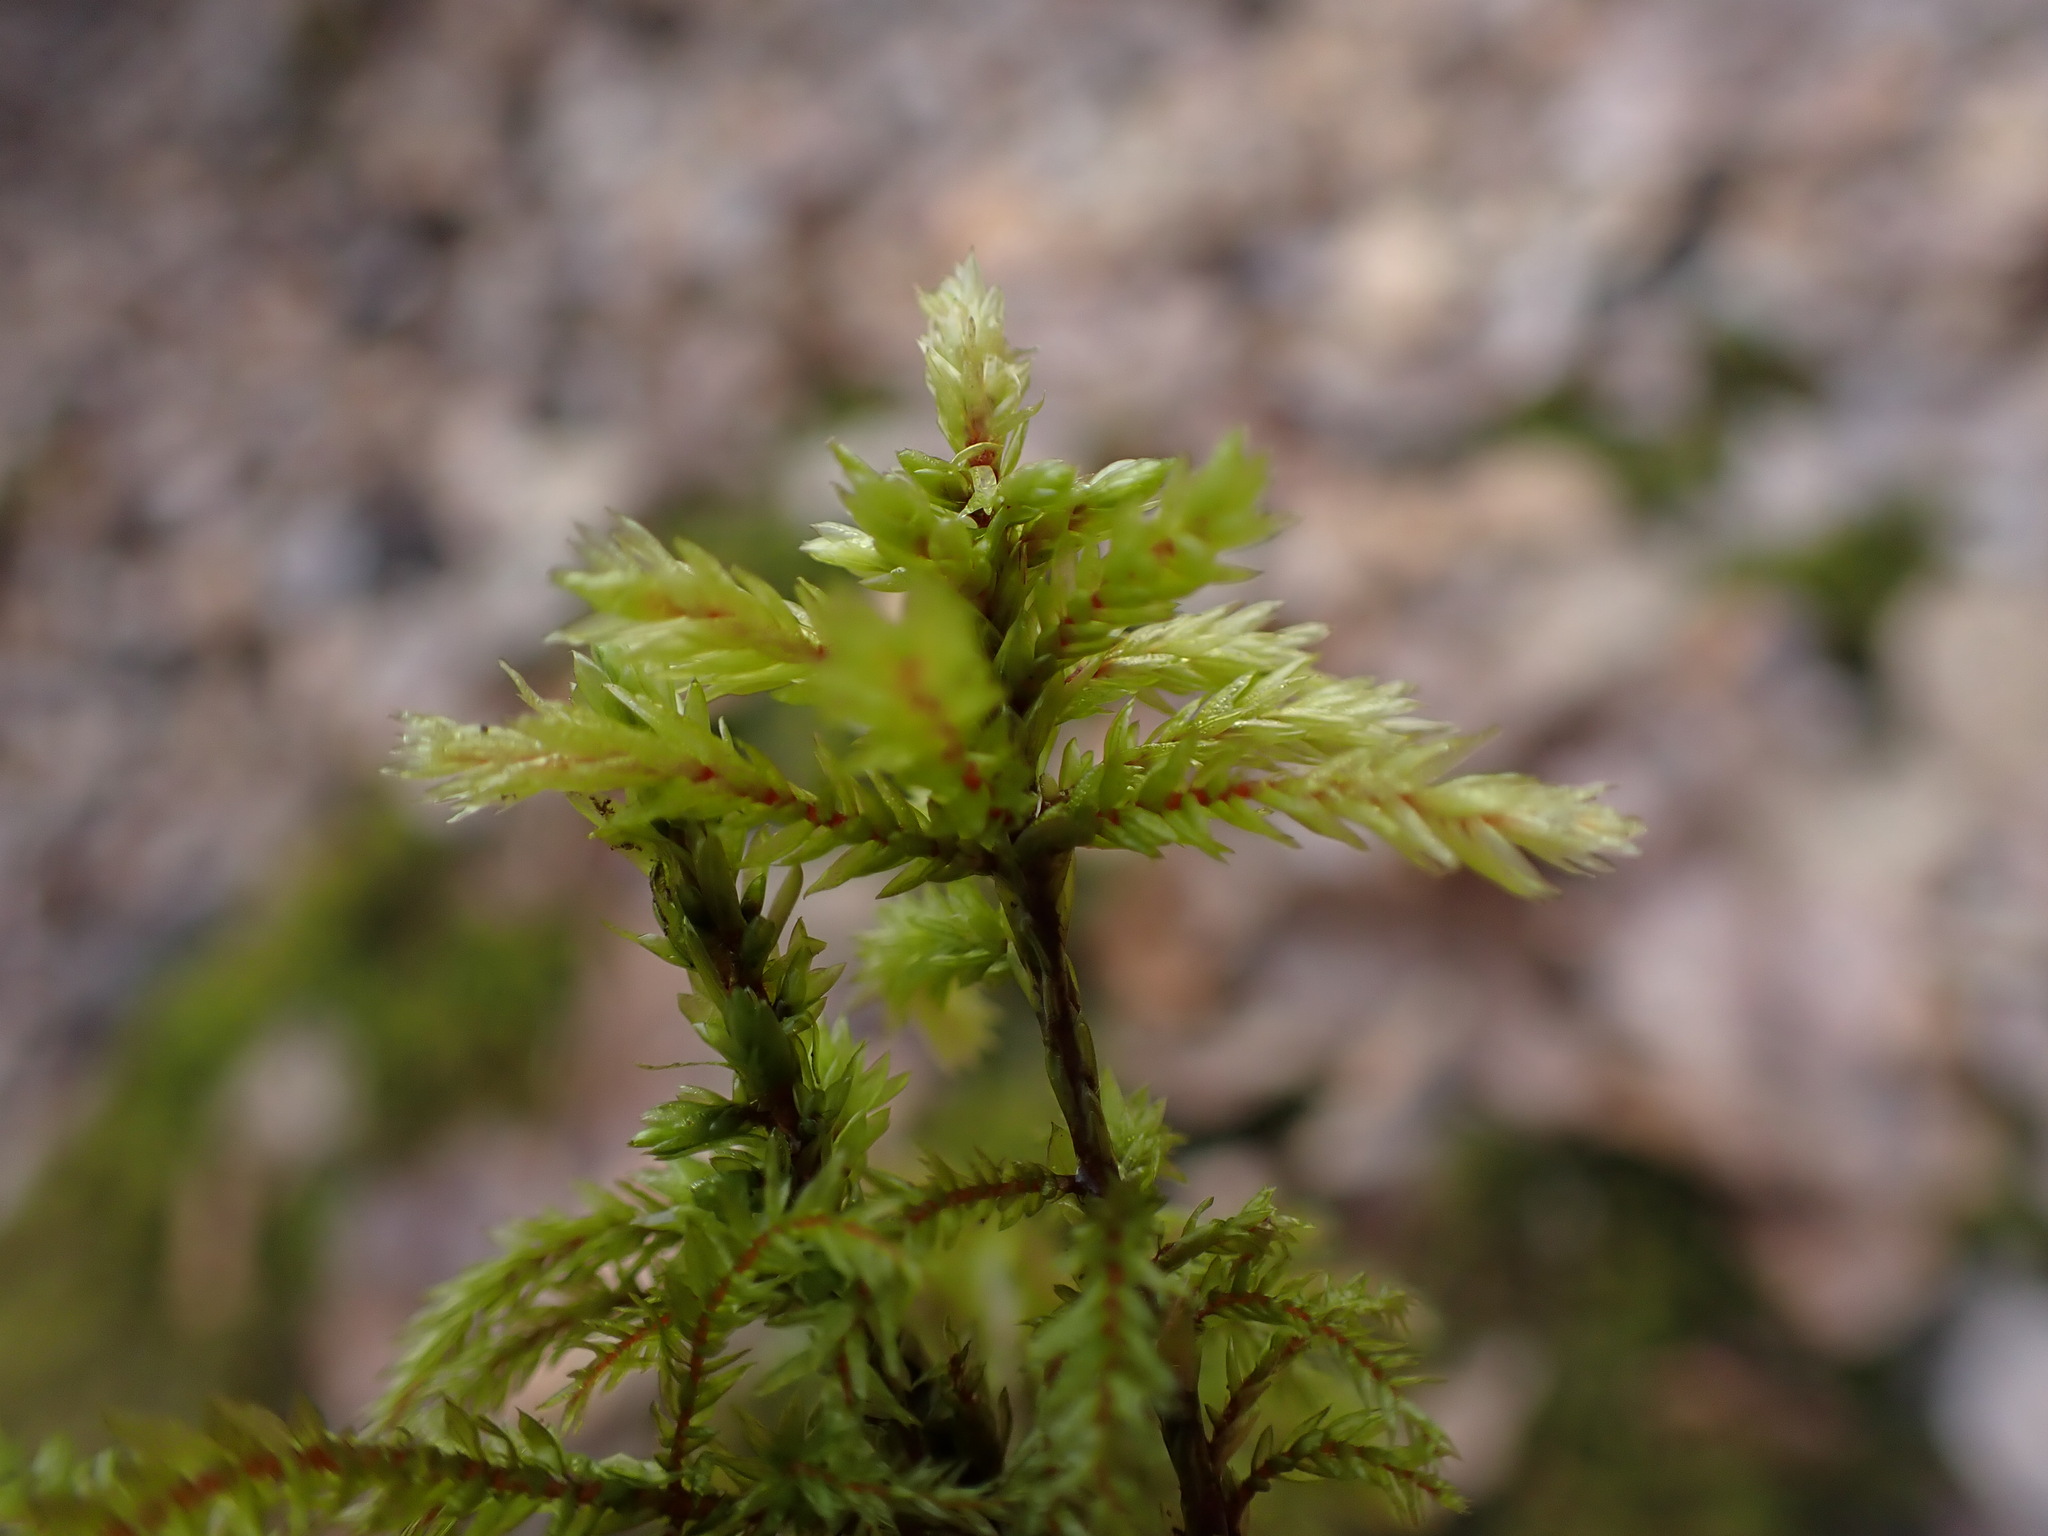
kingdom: Plantae
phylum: Bryophyta
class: Bryopsida
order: Hypnales
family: Climaciaceae
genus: Climacium
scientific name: Climacium dendroides
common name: Northern tree moss
